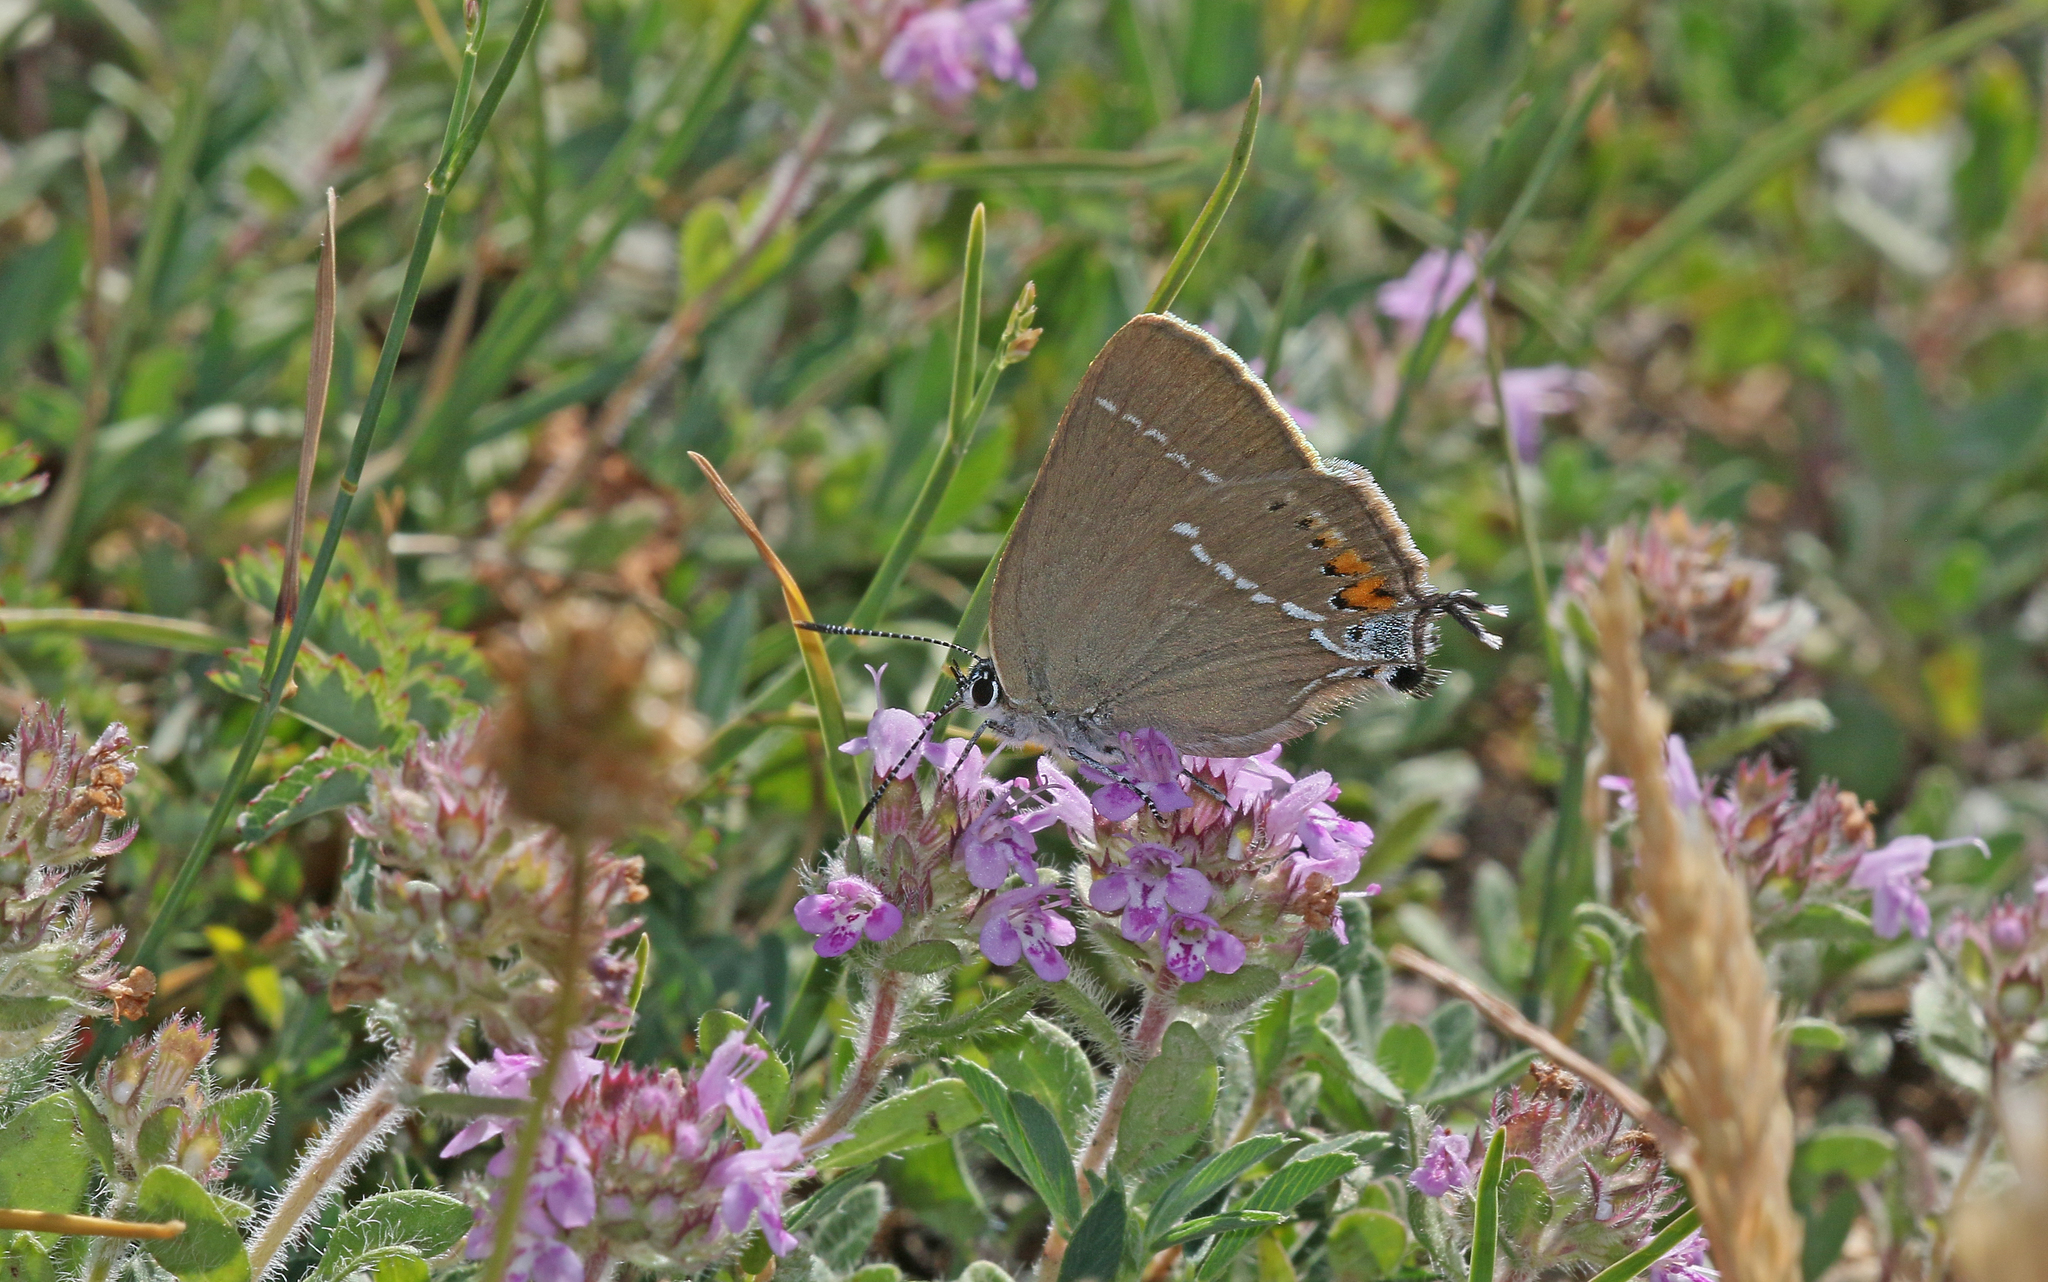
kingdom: Animalia
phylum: Arthropoda
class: Insecta
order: Lepidoptera
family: Lycaenidae
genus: Tuttiola
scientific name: Tuttiola spini
